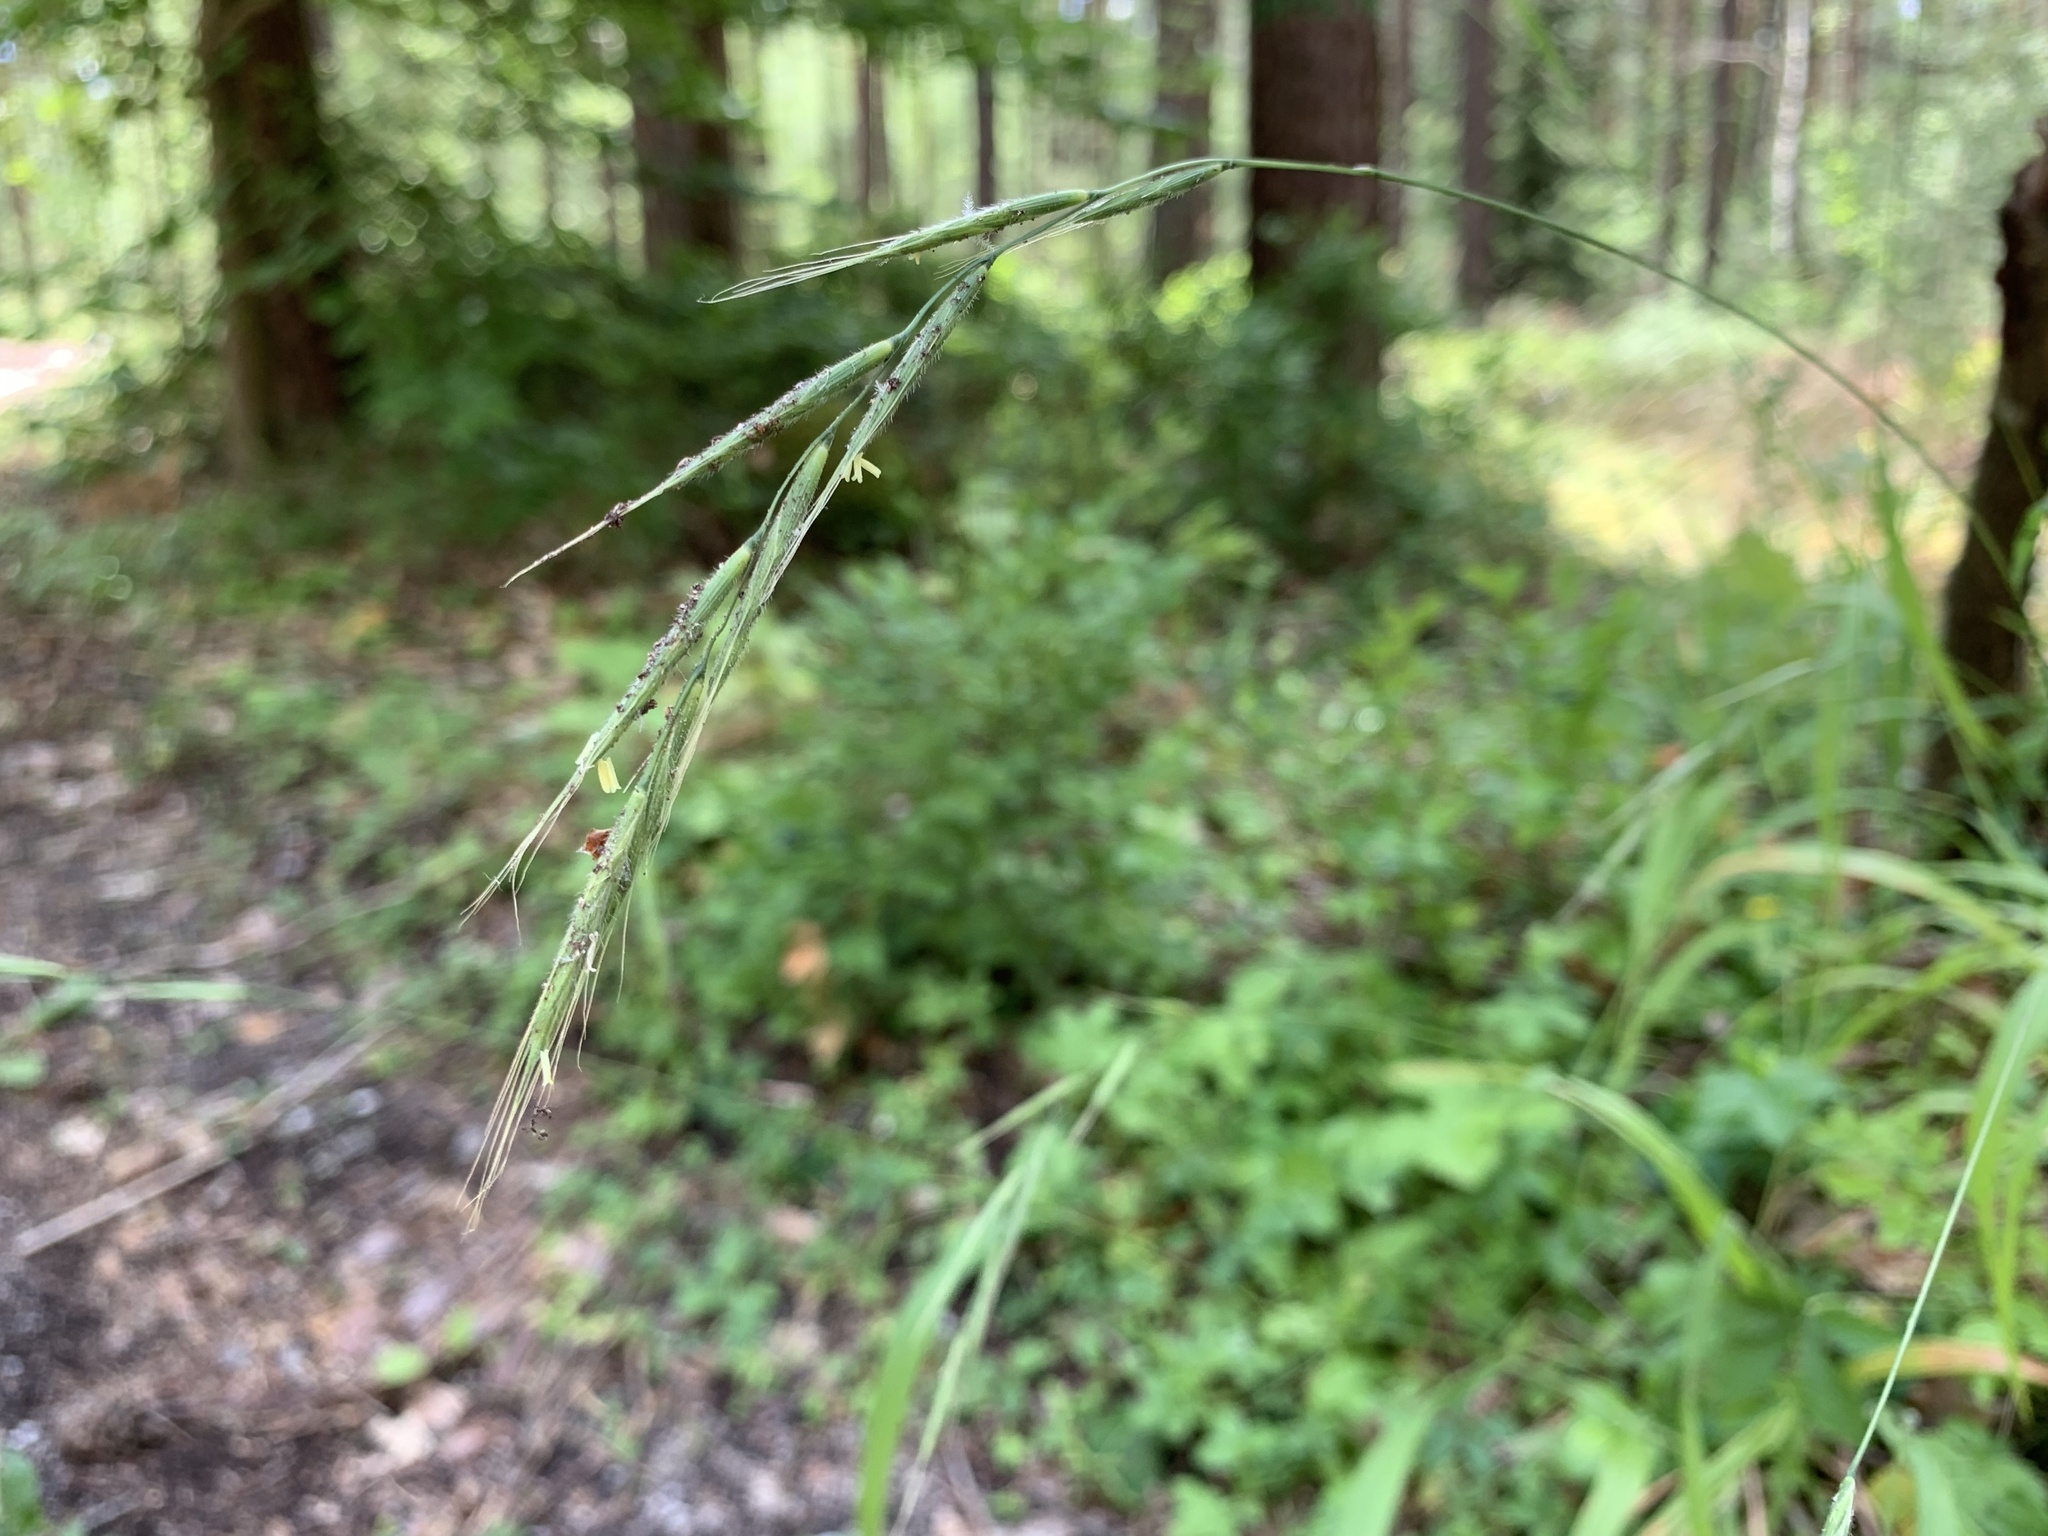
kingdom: Plantae
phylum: Tracheophyta
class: Liliopsida
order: Poales
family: Poaceae
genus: Brachypodium
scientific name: Brachypodium sylvaticum
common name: False-brome
